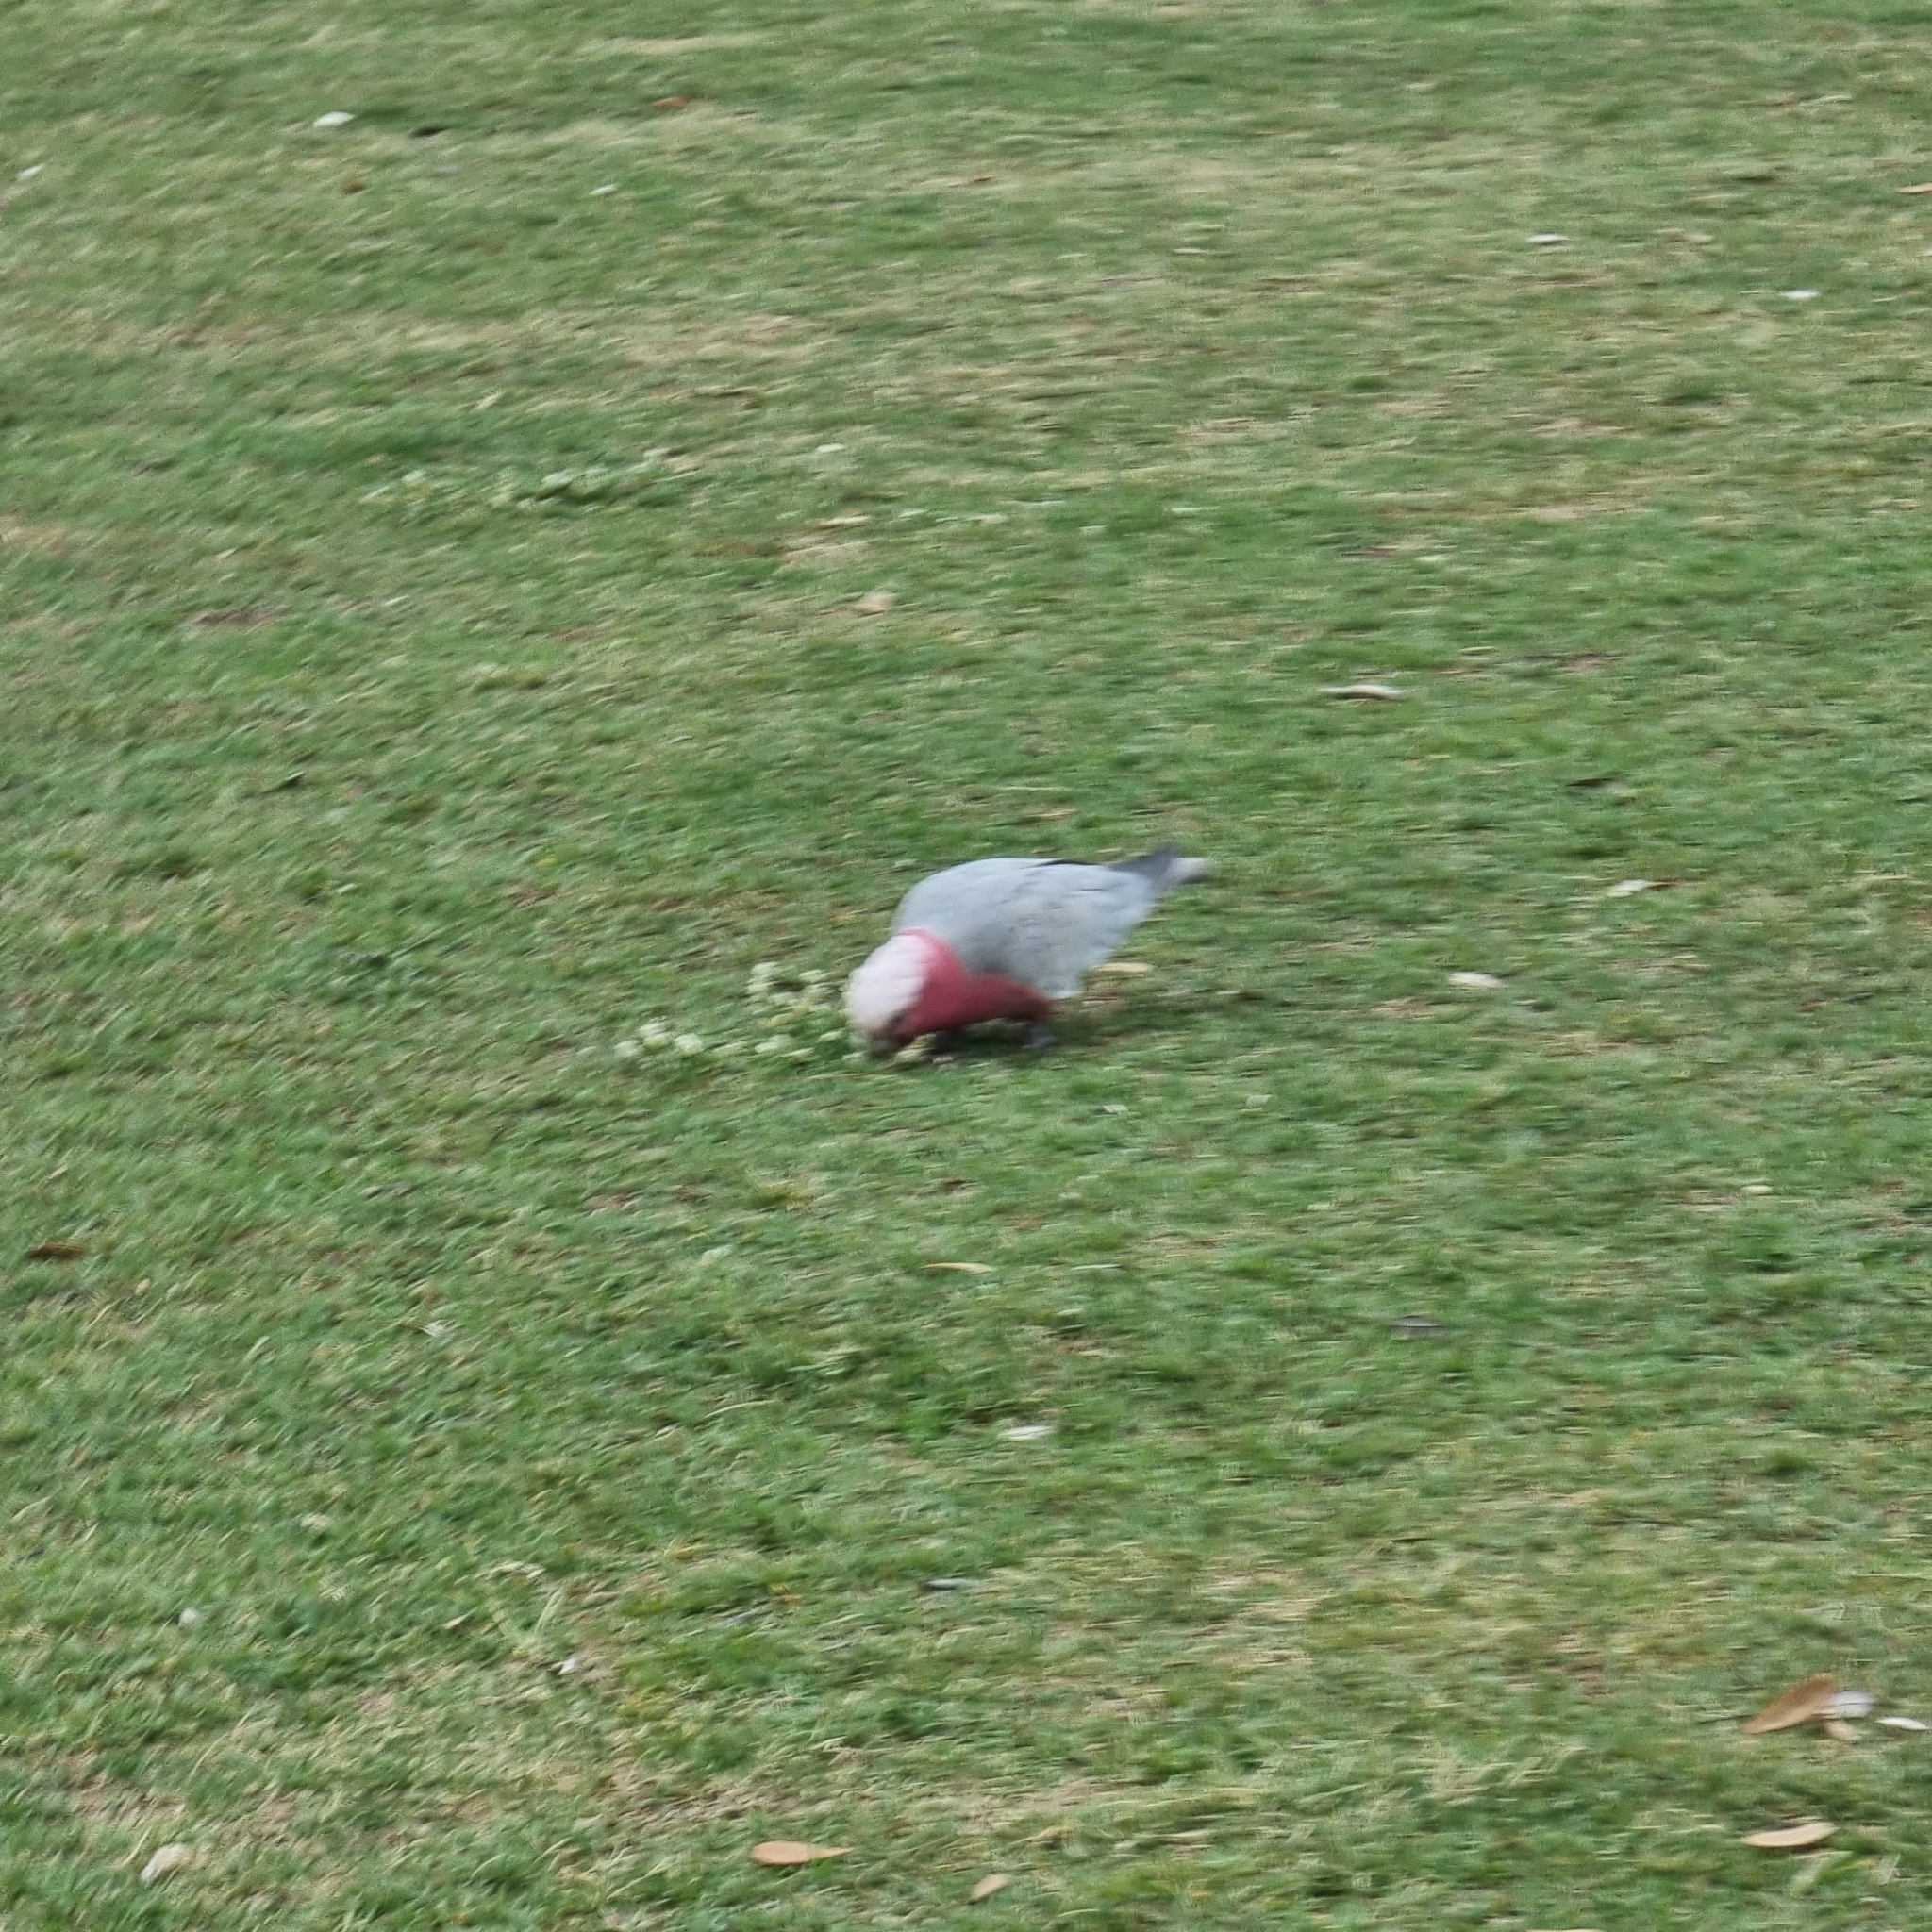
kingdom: Animalia
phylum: Chordata
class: Aves
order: Psittaciformes
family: Psittacidae
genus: Eolophus
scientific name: Eolophus roseicapilla
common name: Galah
